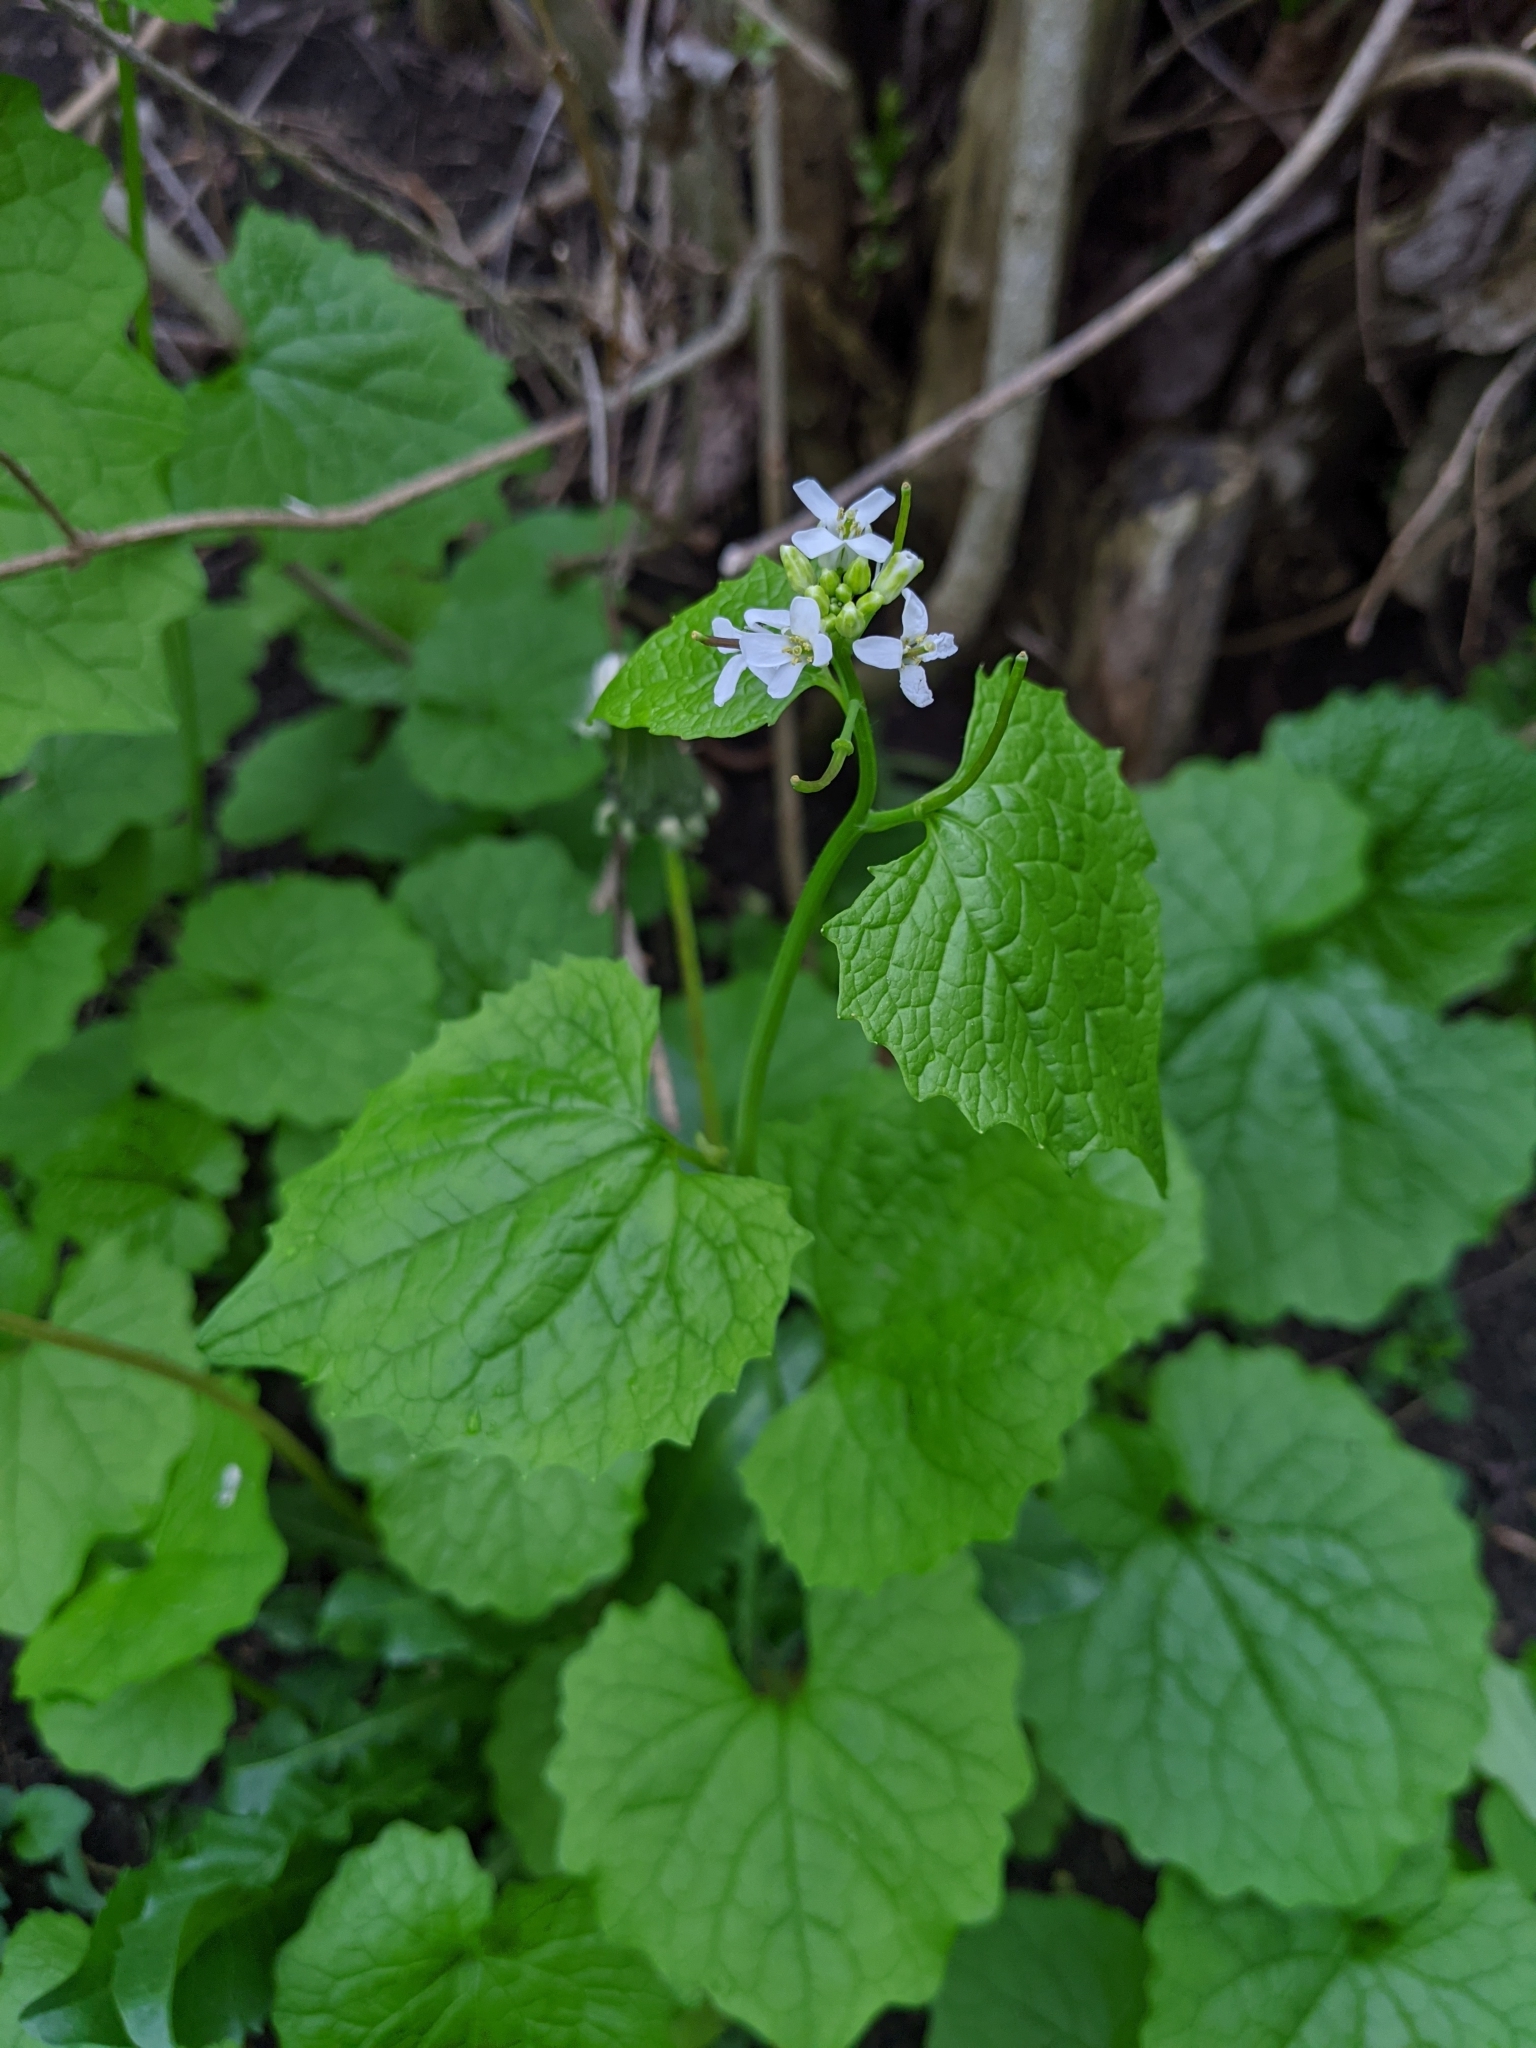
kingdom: Plantae
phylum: Tracheophyta
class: Magnoliopsida
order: Brassicales
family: Brassicaceae
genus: Alliaria
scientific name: Alliaria petiolata
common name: Garlic mustard
